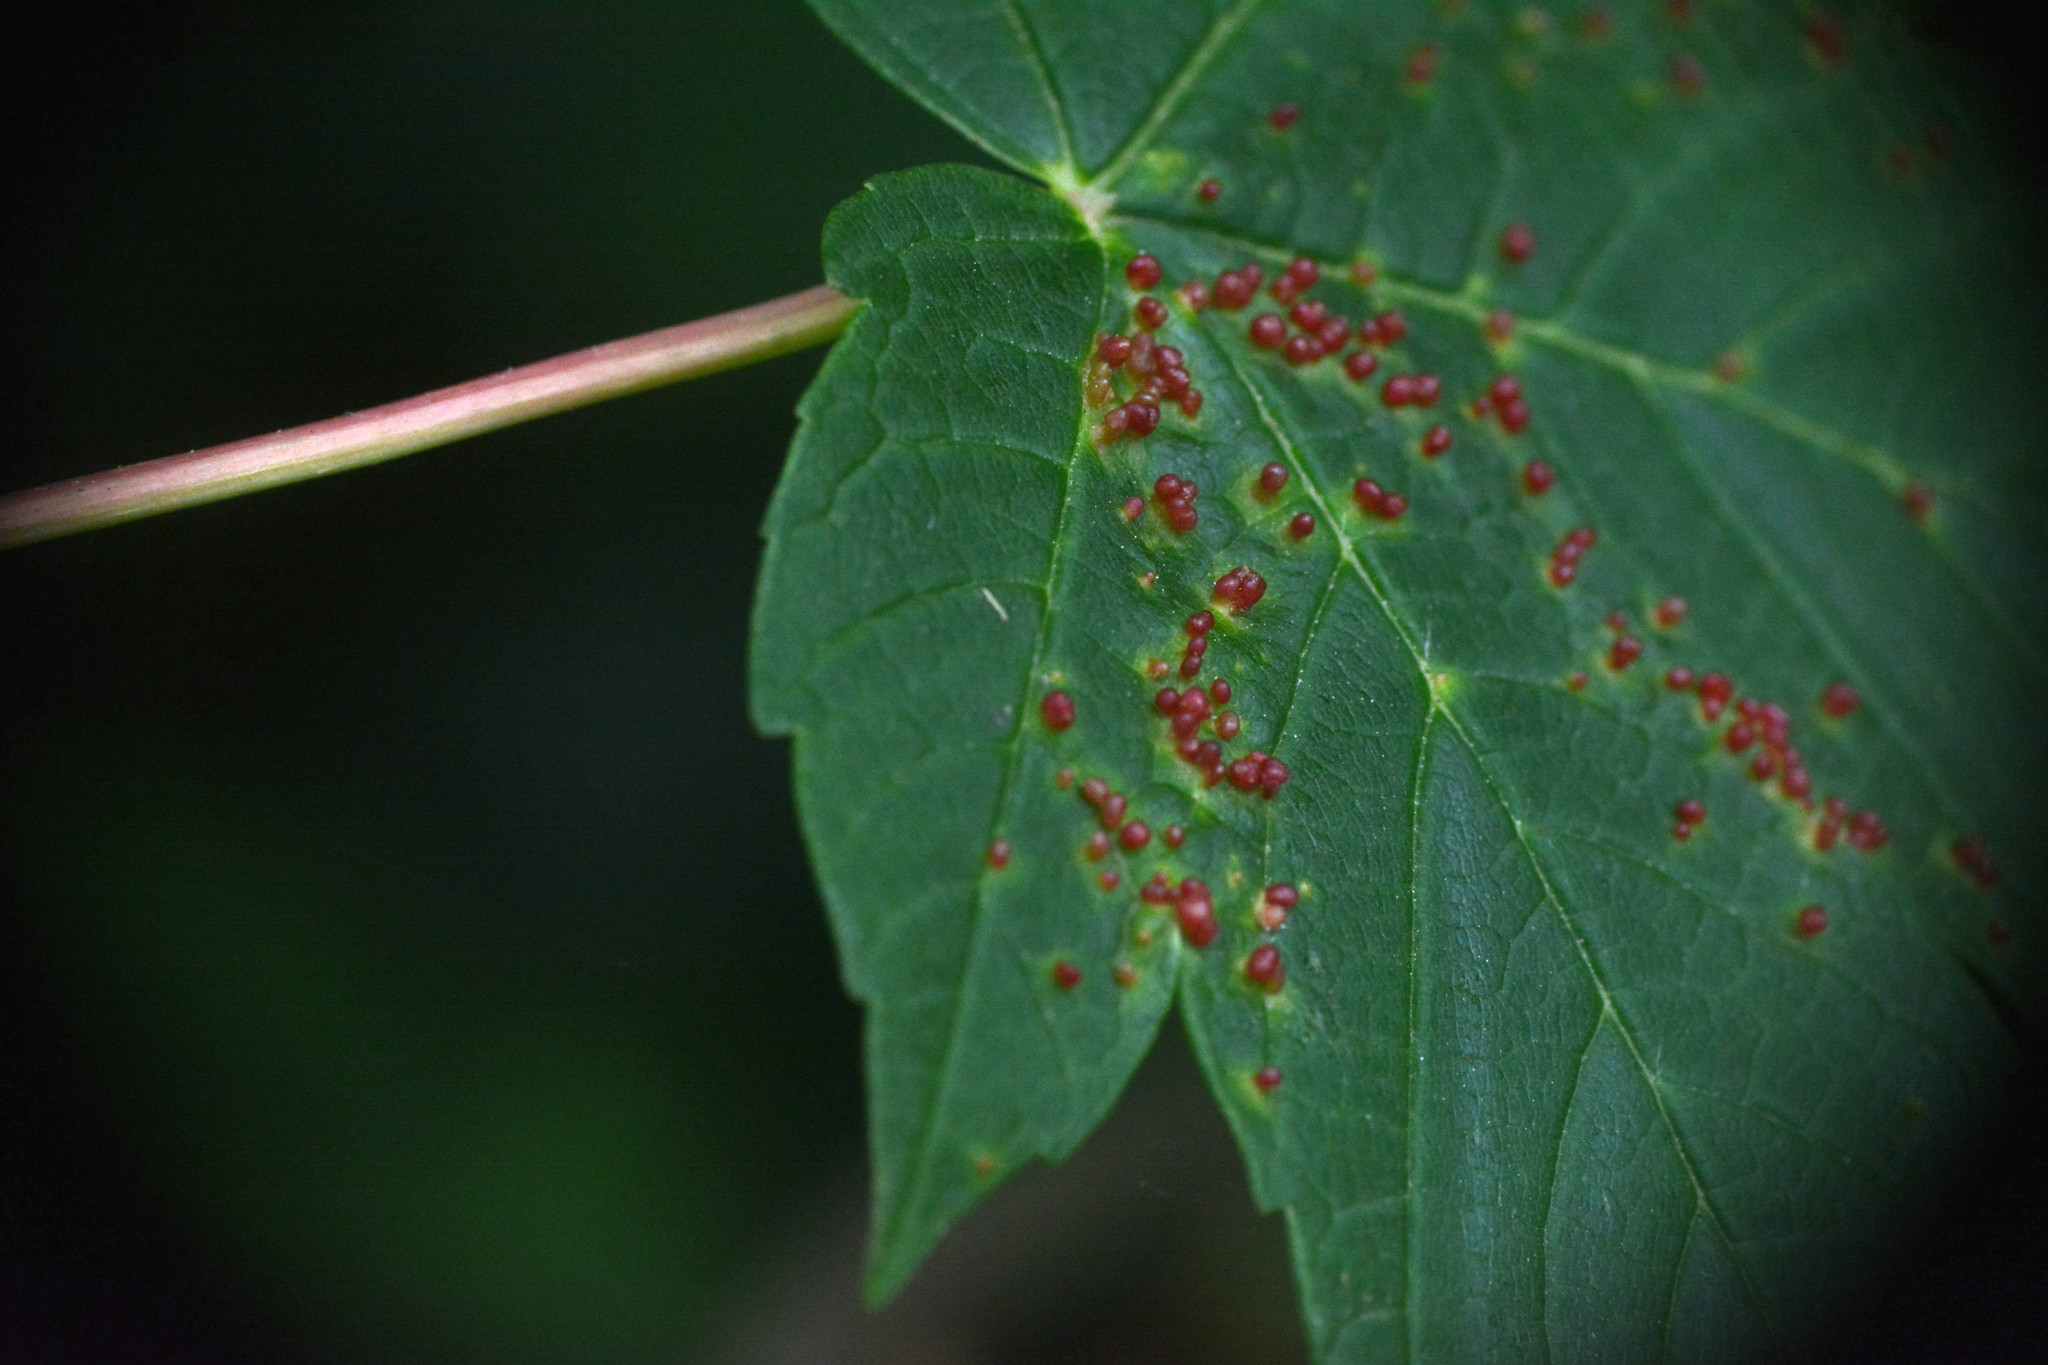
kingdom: Animalia
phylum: Arthropoda
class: Arachnida
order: Trombidiformes
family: Eriophyidae
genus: Aceria
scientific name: Aceria cephaloneus
